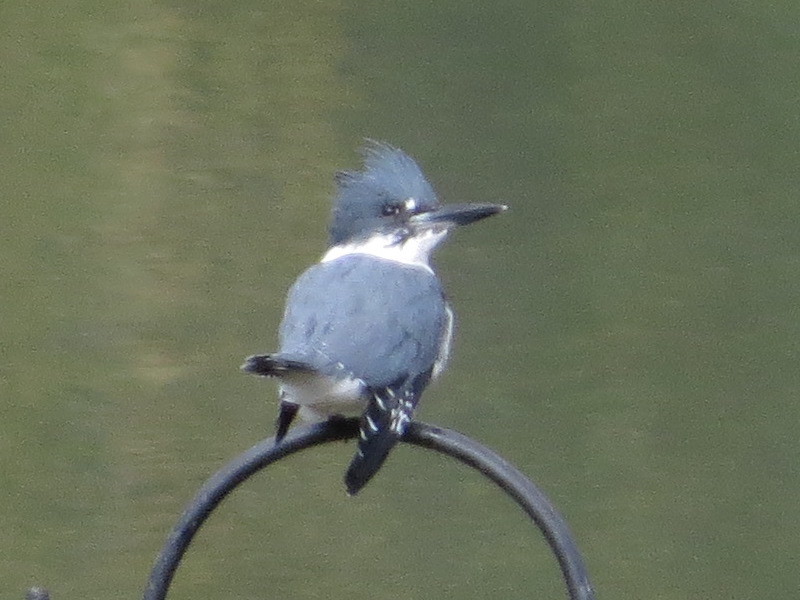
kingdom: Animalia
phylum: Chordata
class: Aves
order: Coraciiformes
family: Alcedinidae
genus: Megaceryle
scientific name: Megaceryle alcyon
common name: Belted kingfisher
